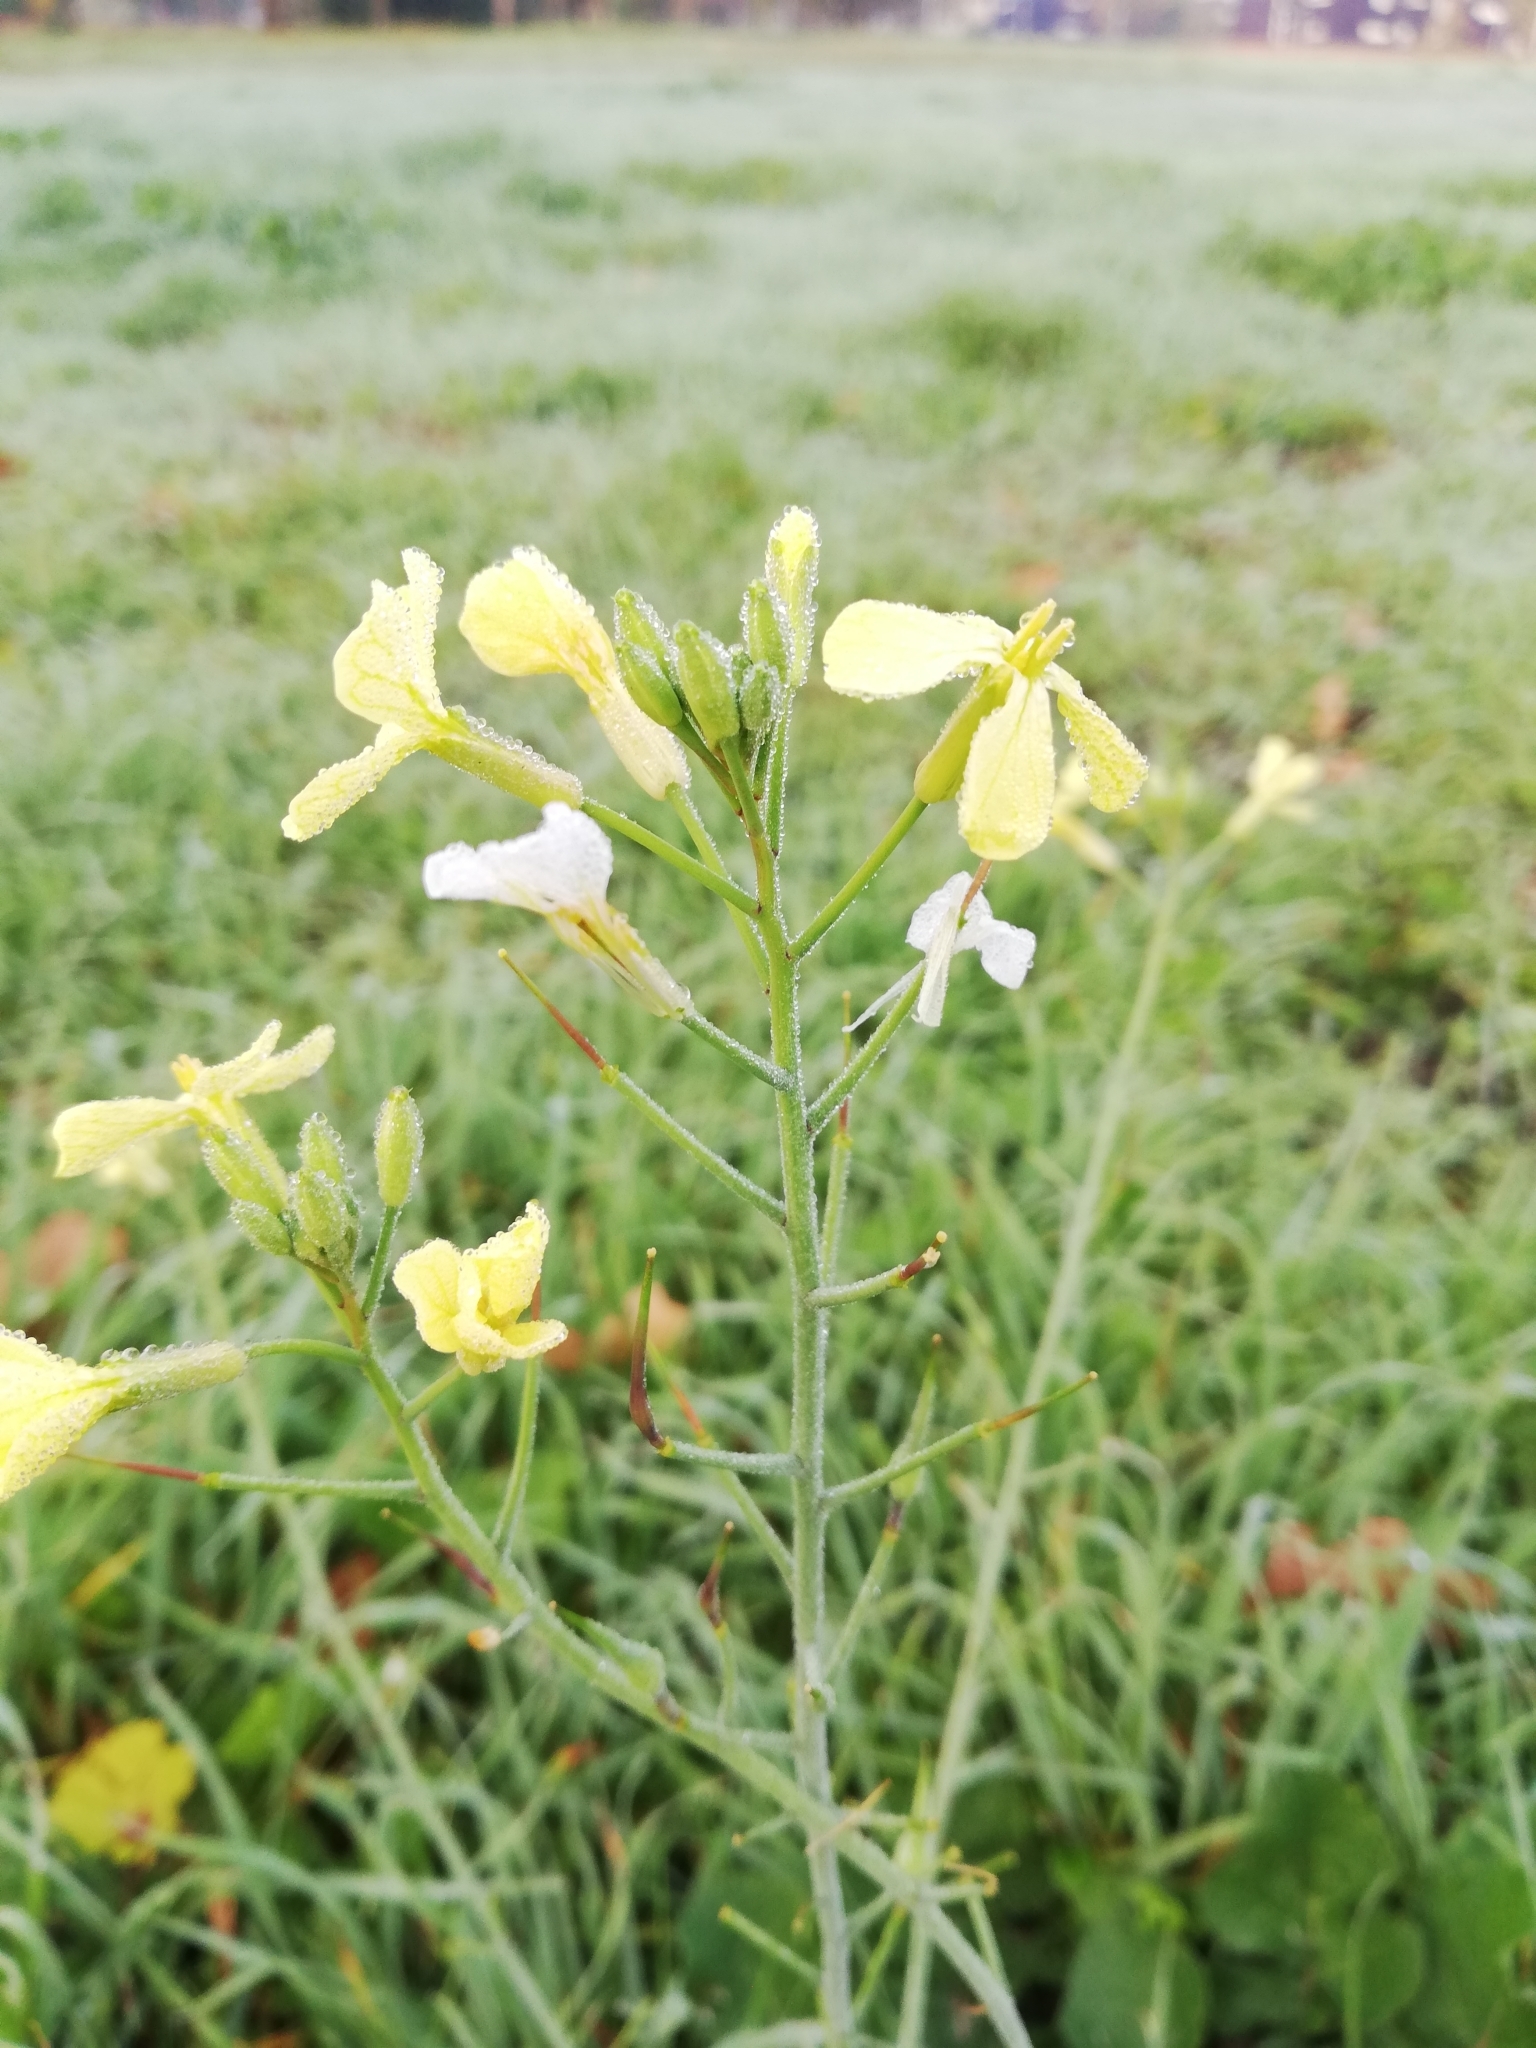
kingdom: Plantae
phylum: Tracheophyta
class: Magnoliopsida
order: Brassicales
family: Brassicaceae
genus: Raphanus
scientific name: Raphanus raphanistrum
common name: Wild radish
